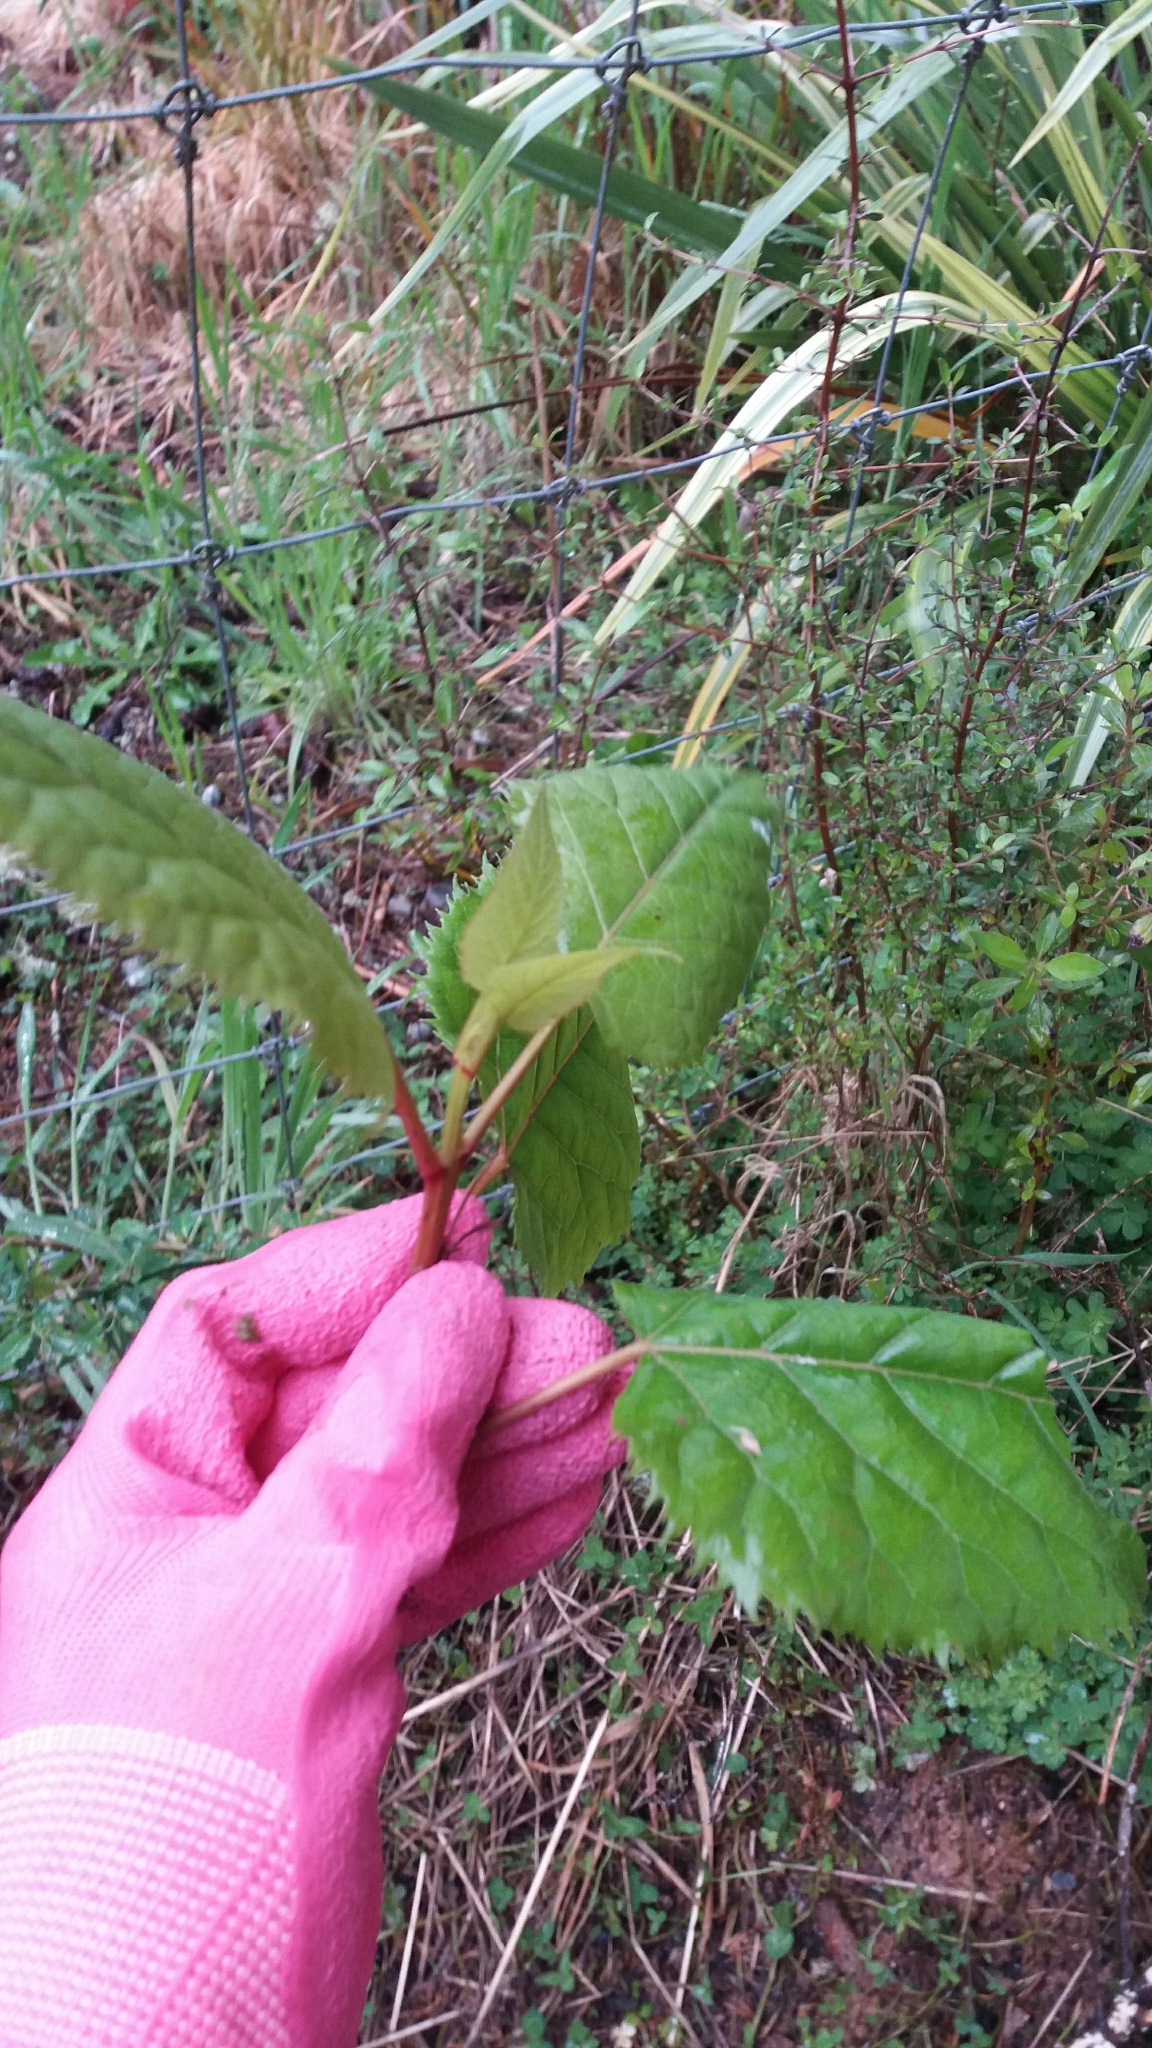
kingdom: Plantae
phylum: Tracheophyta
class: Magnoliopsida
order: Oxalidales
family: Elaeocarpaceae
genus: Aristotelia
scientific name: Aristotelia serrata
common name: New zealand wineberry
